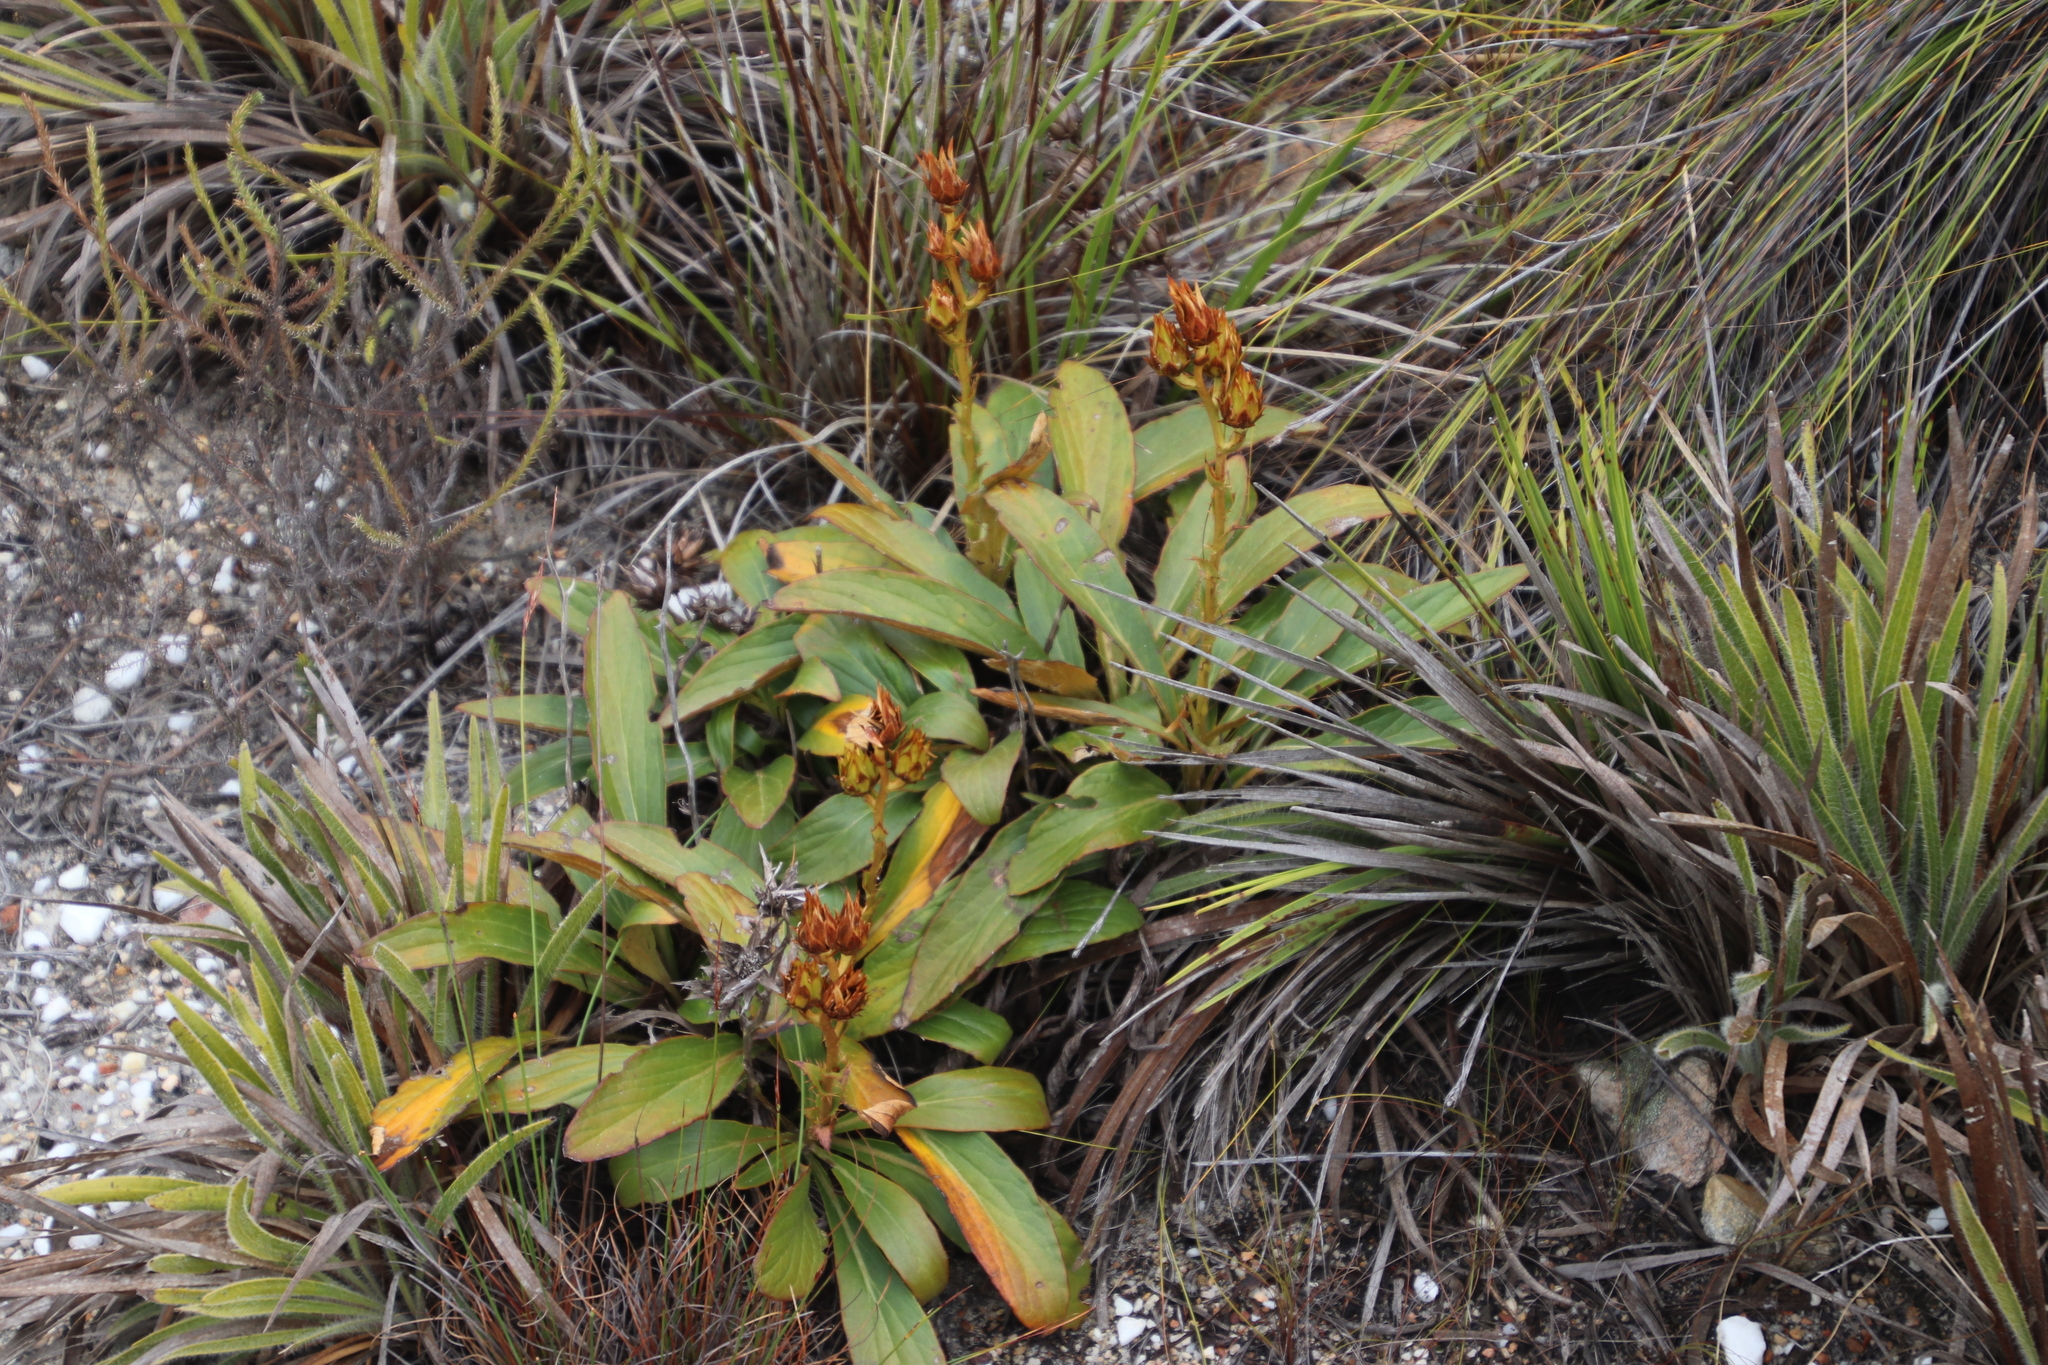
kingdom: Plantae
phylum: Tracheophyta
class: Magnoliopsida
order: Asterales
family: Asteraceae
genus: Berkheya
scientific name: Berkheya herbacea
